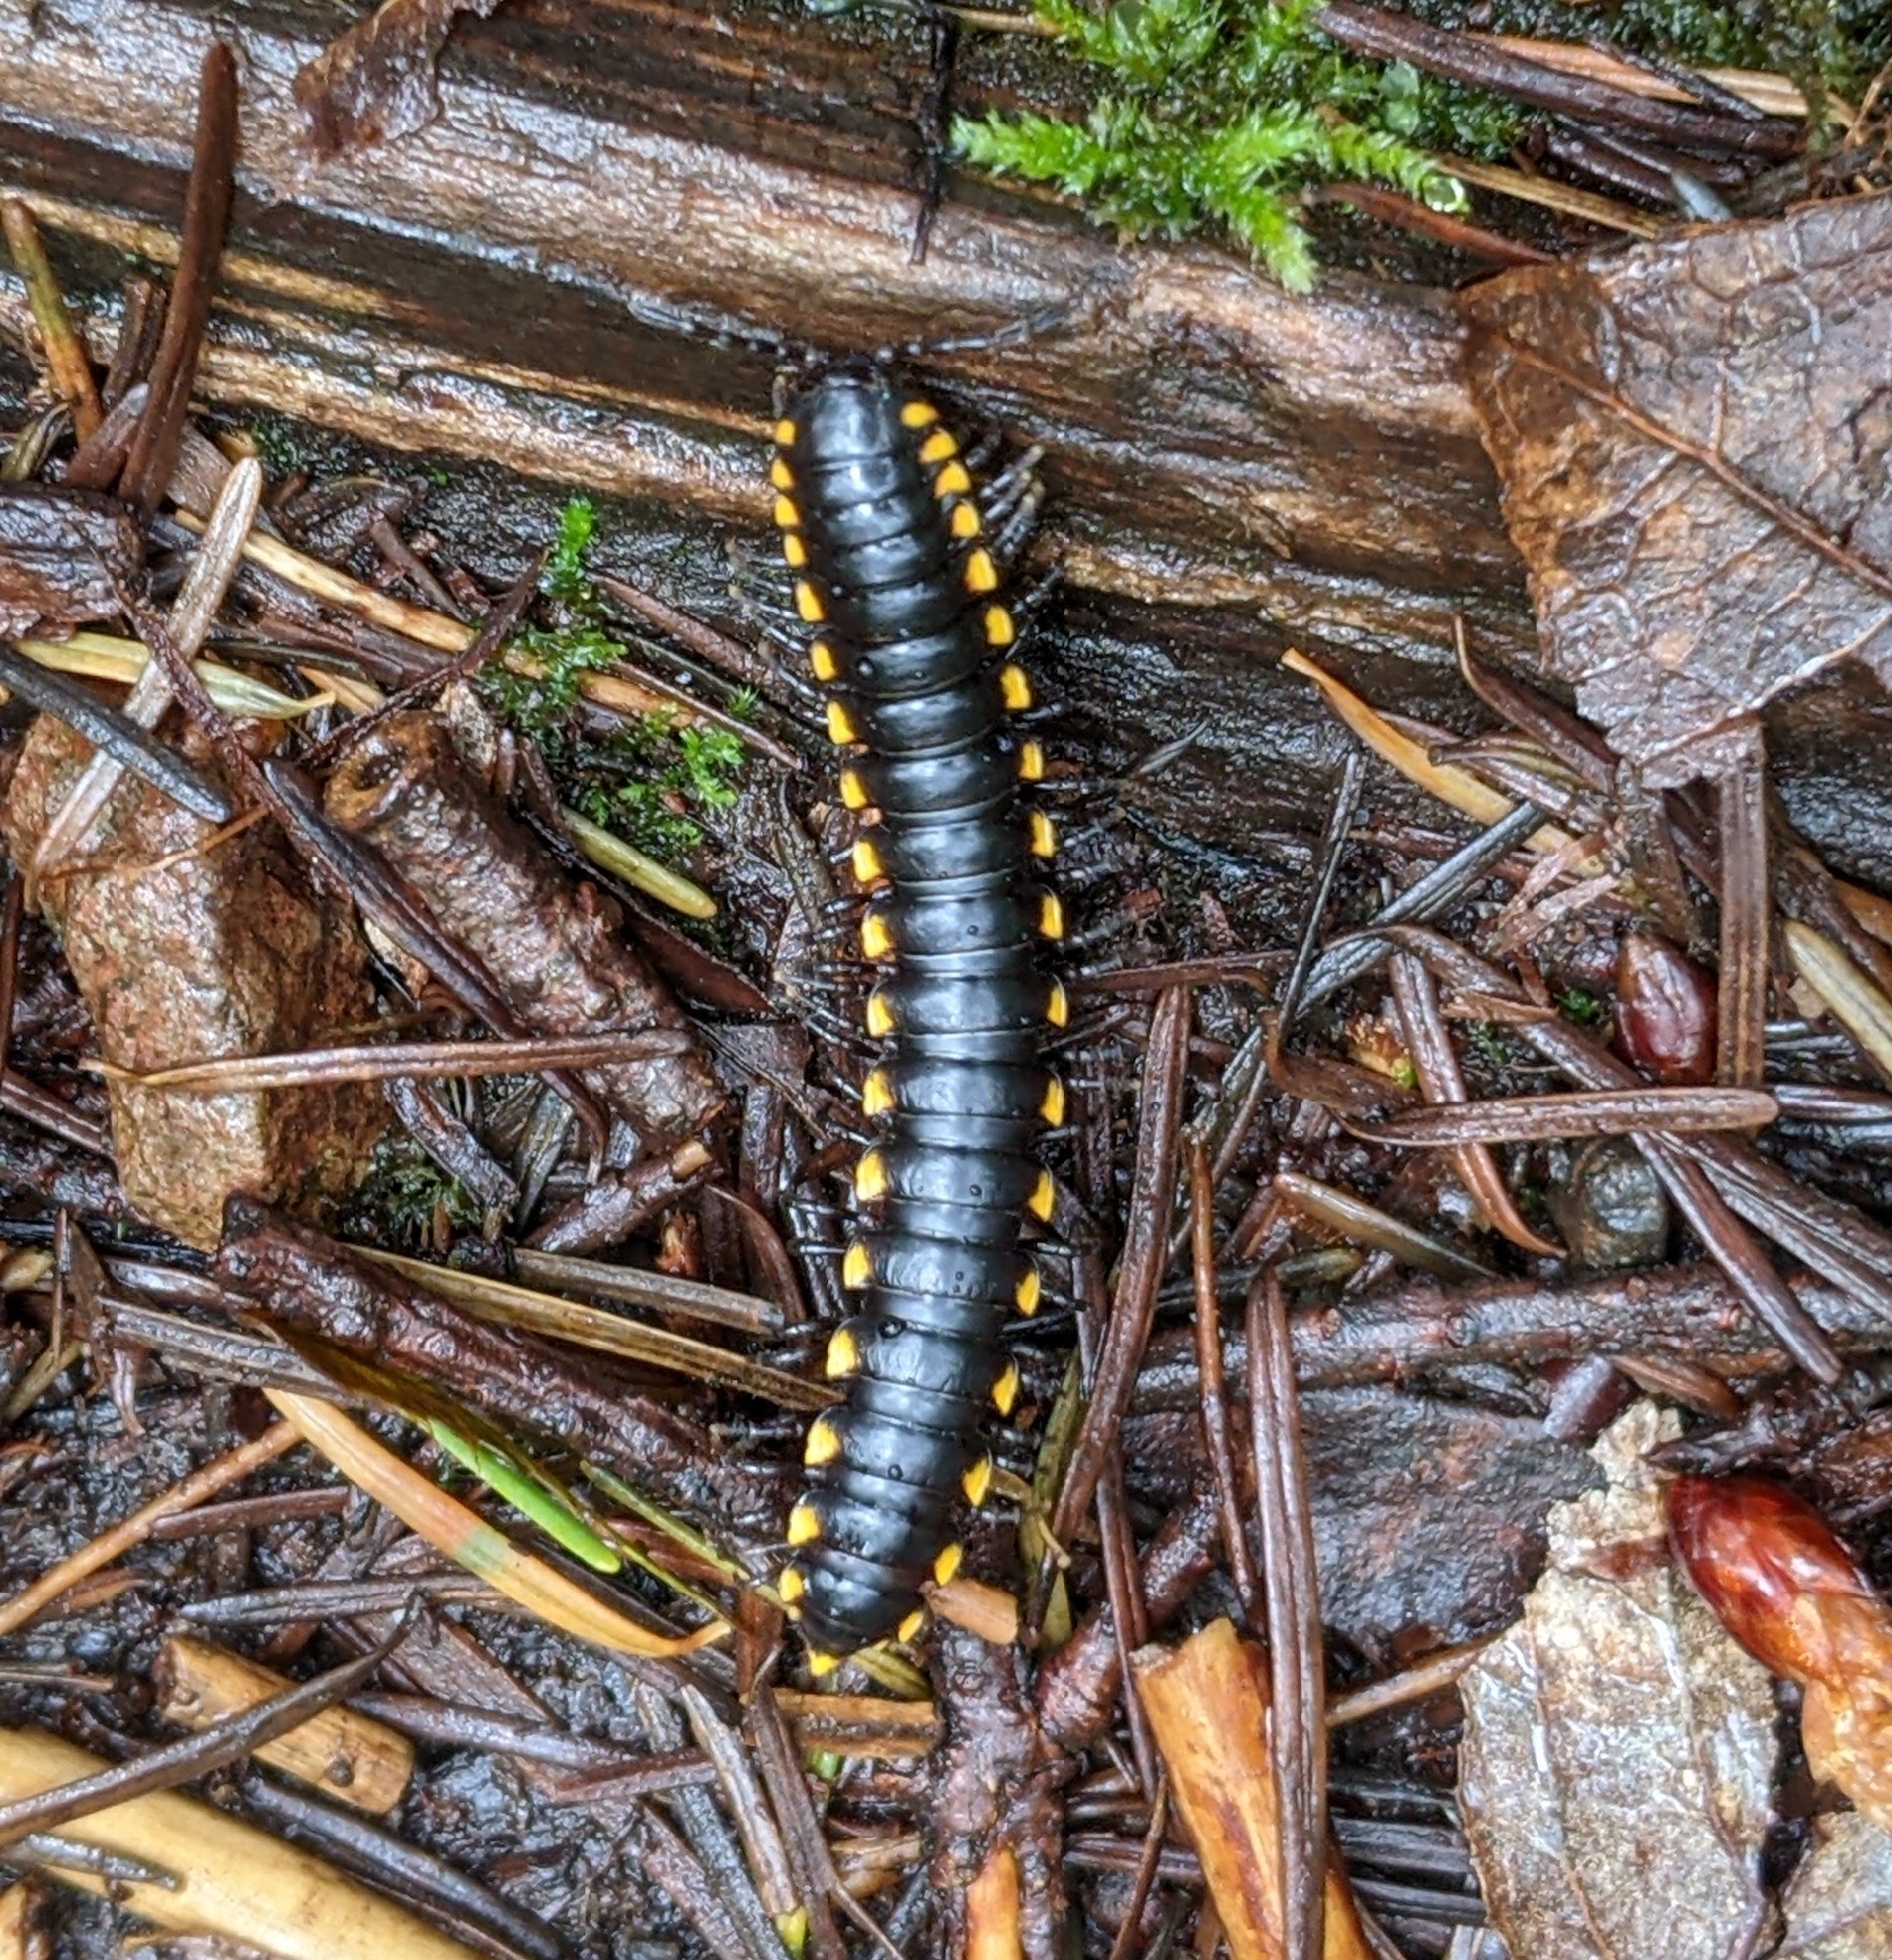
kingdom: Animalia
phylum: Arthropoda
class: Diplopoda
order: Polydesmida
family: Xystodesmidae
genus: Harpaphe
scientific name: Harpaphe haydeniana
